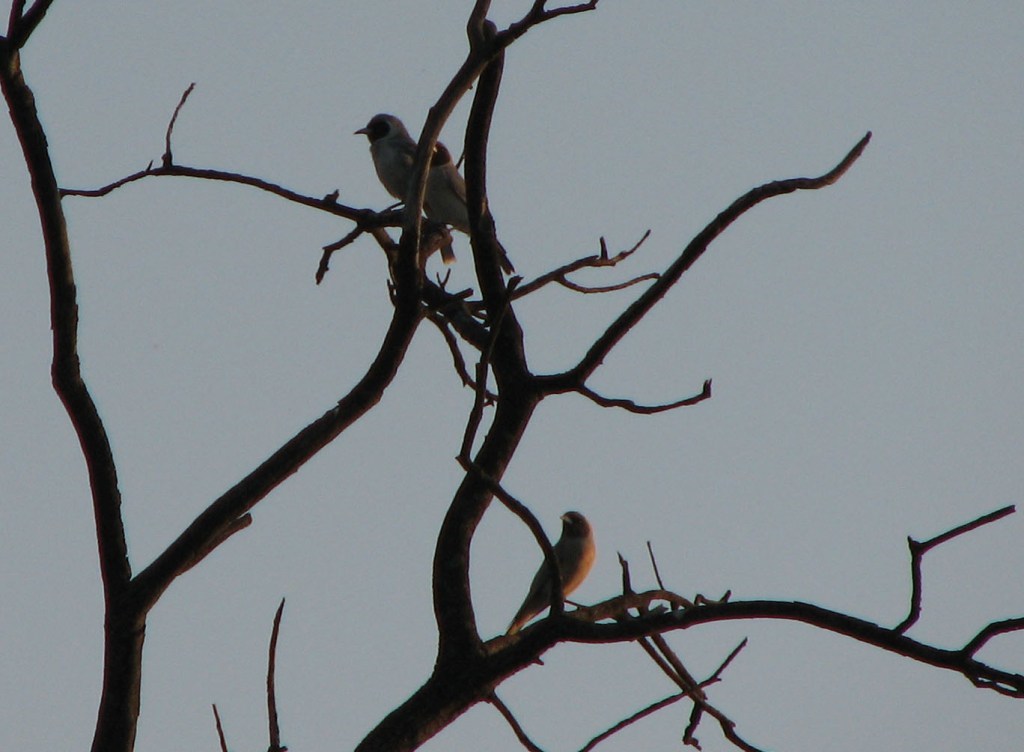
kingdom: Animalia
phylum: Chordata
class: Aves
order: Passeriformes
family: Artamidae
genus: Artamus
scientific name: Artamus personatus
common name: Masked woodswallow
